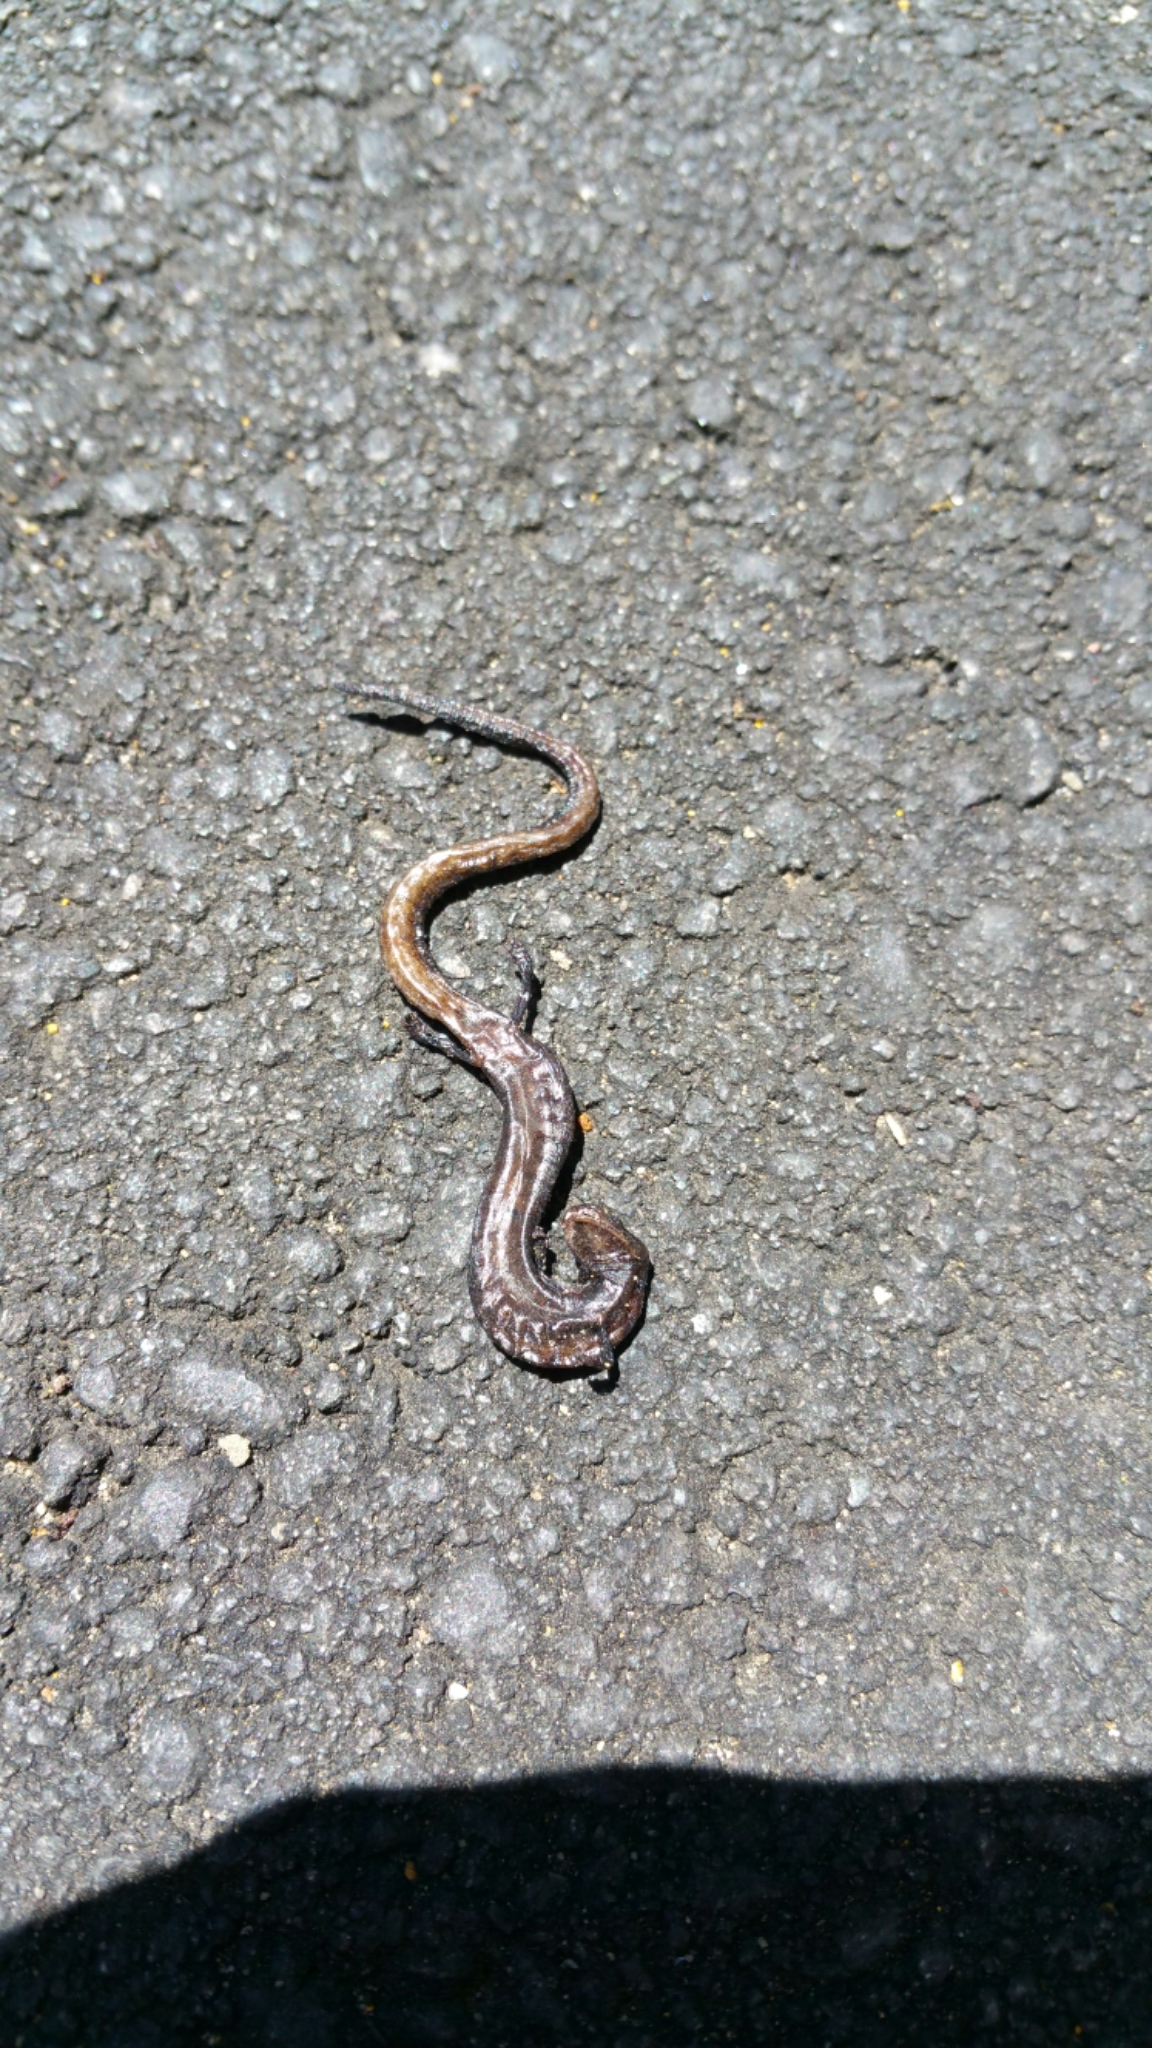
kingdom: Animalia
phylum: Chordata
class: Amphibia
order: Caudata
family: Plethodontidae
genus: Batrachoseps
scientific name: Batrachoseps attenuatus
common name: California slender salamander
